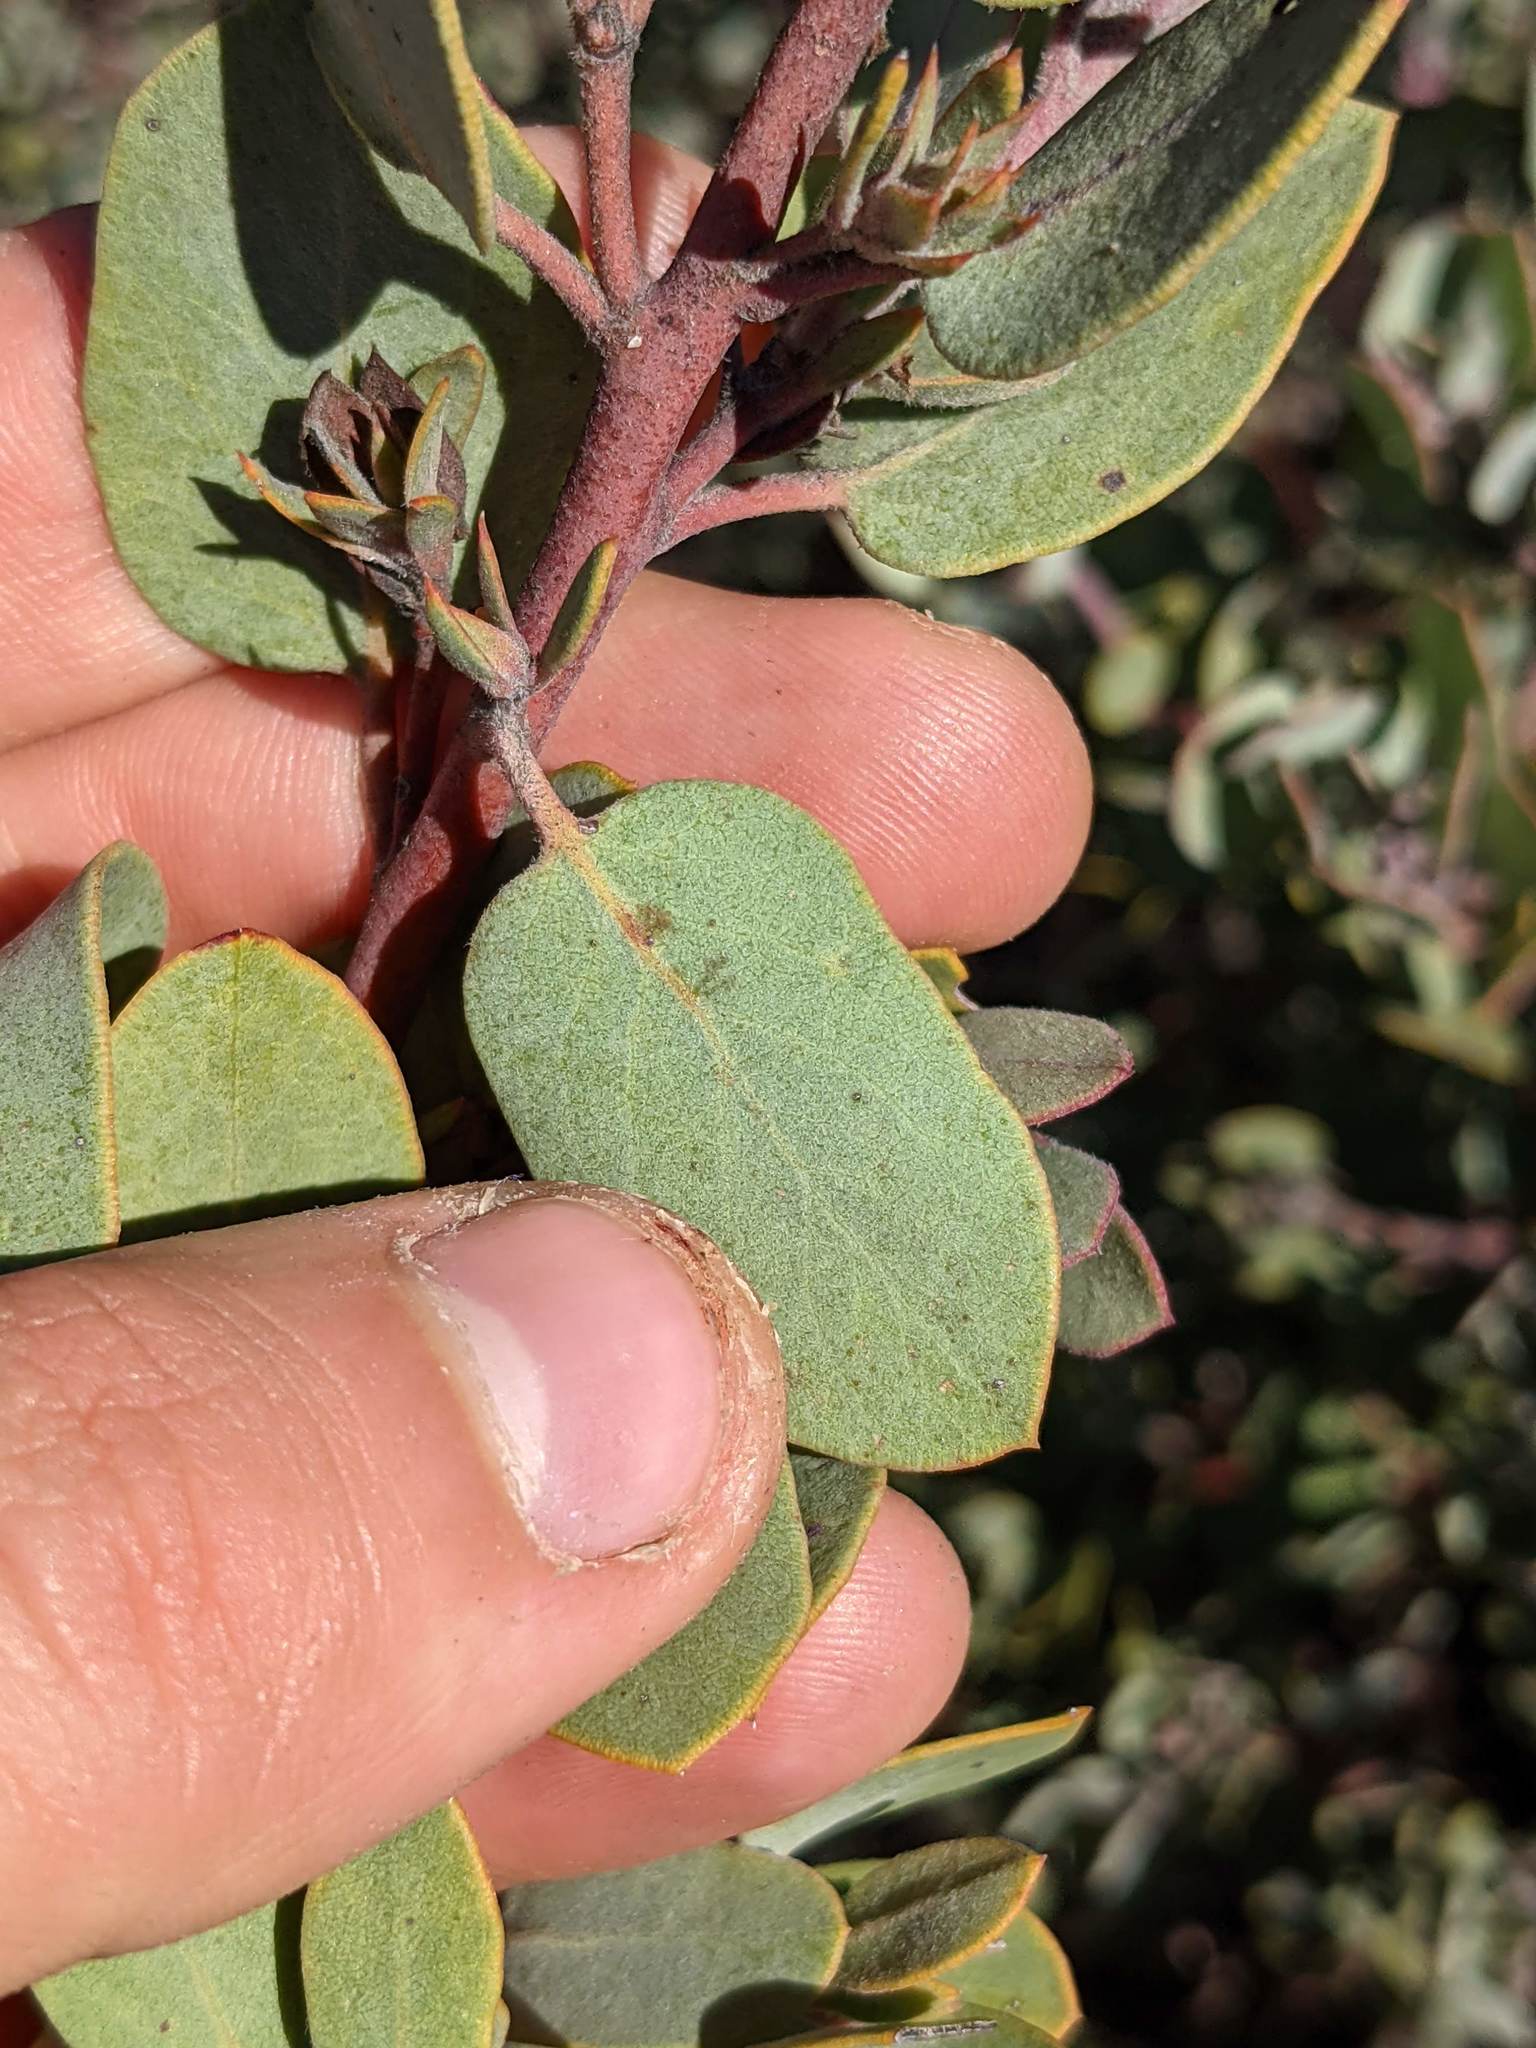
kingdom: Plantae
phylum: Tracheophyta
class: Magnoliopsida
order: Ericales
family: Ericaceae
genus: Arctostaphylos
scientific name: Arctostaphylos obispoensis
